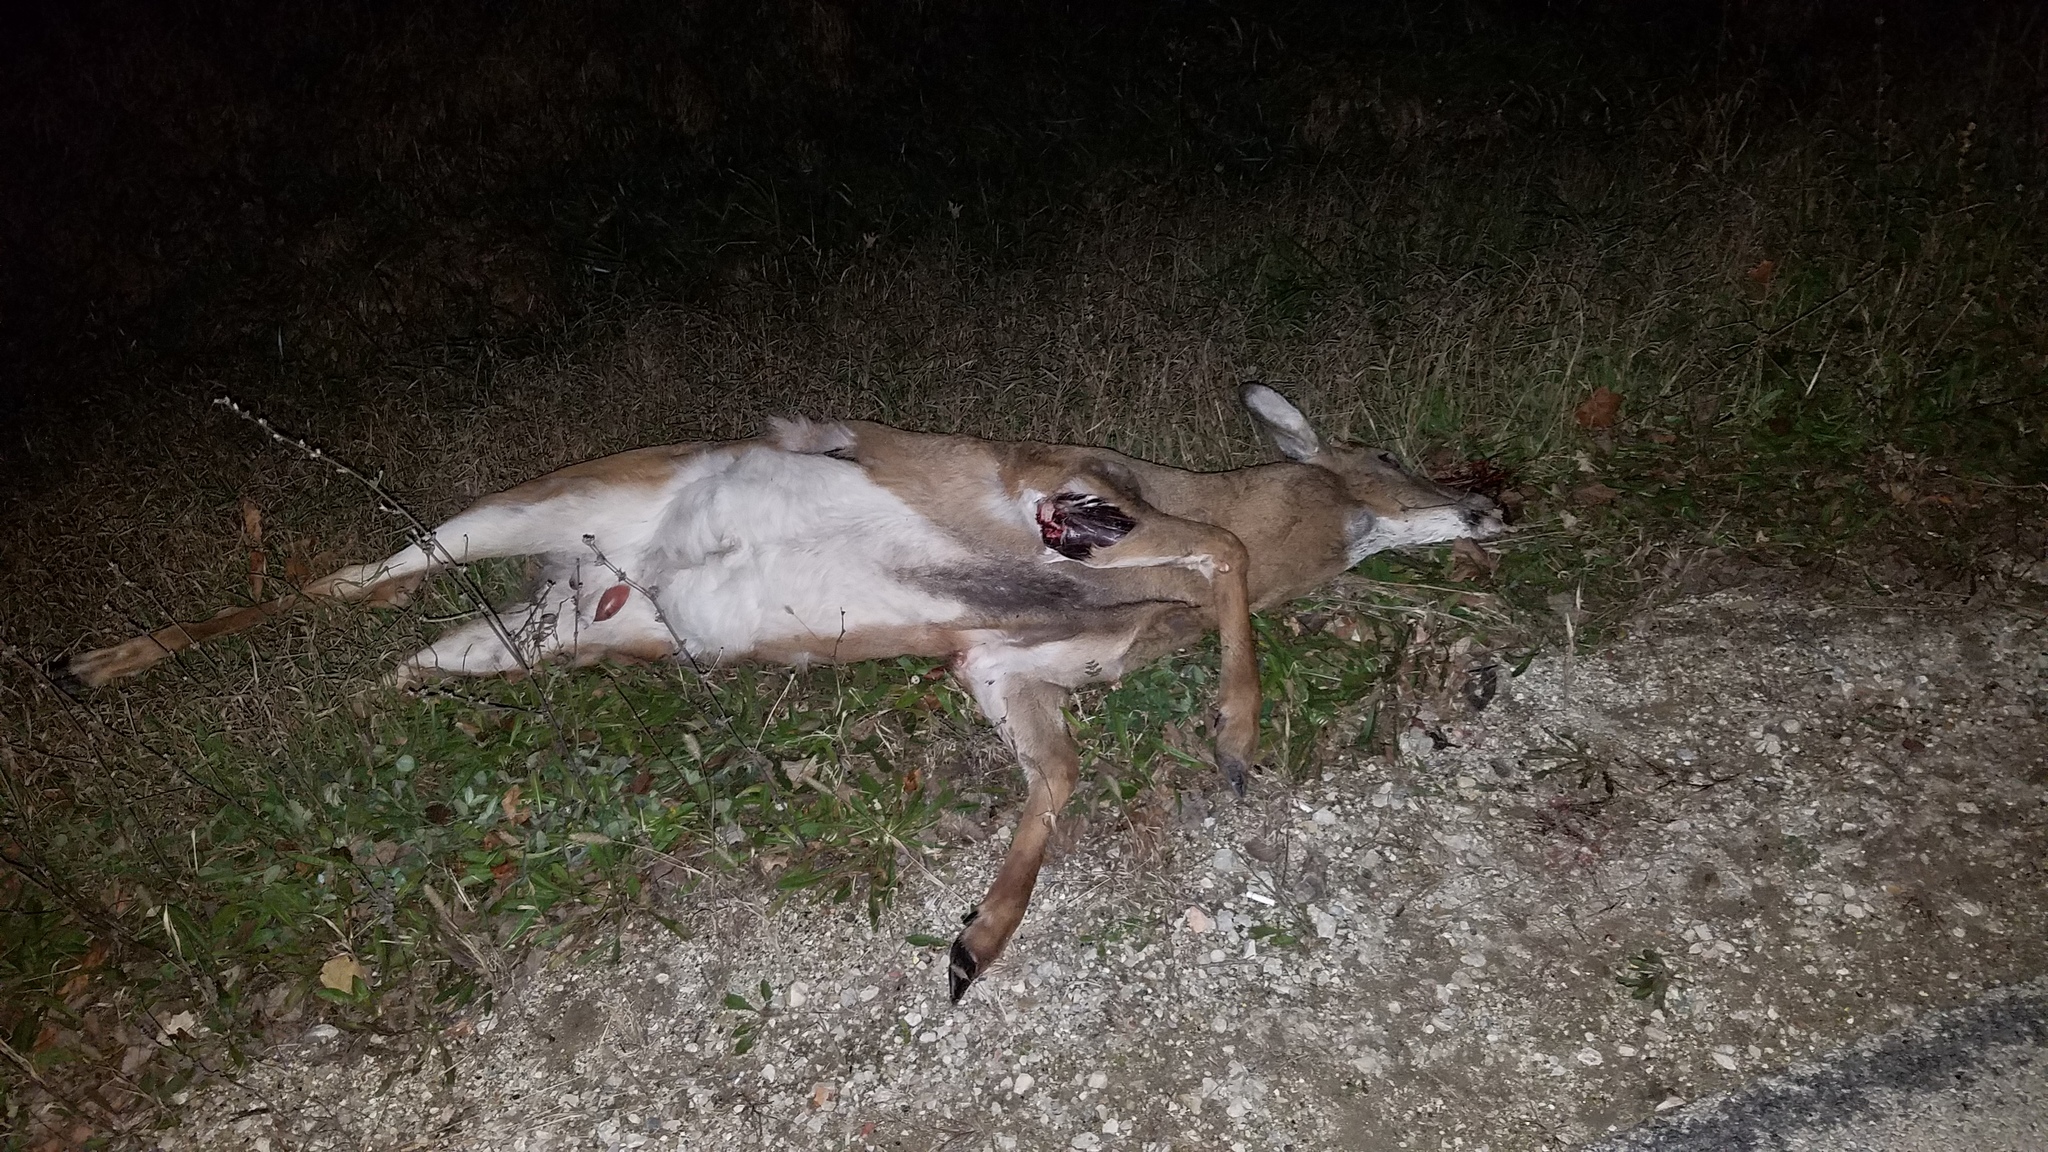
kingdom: Animalia
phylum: Chordata
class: Mammalia
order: Artiodactyla
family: Cervidae
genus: Odocoileus
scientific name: Odocoileus virginianus
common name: White-tailed deer
